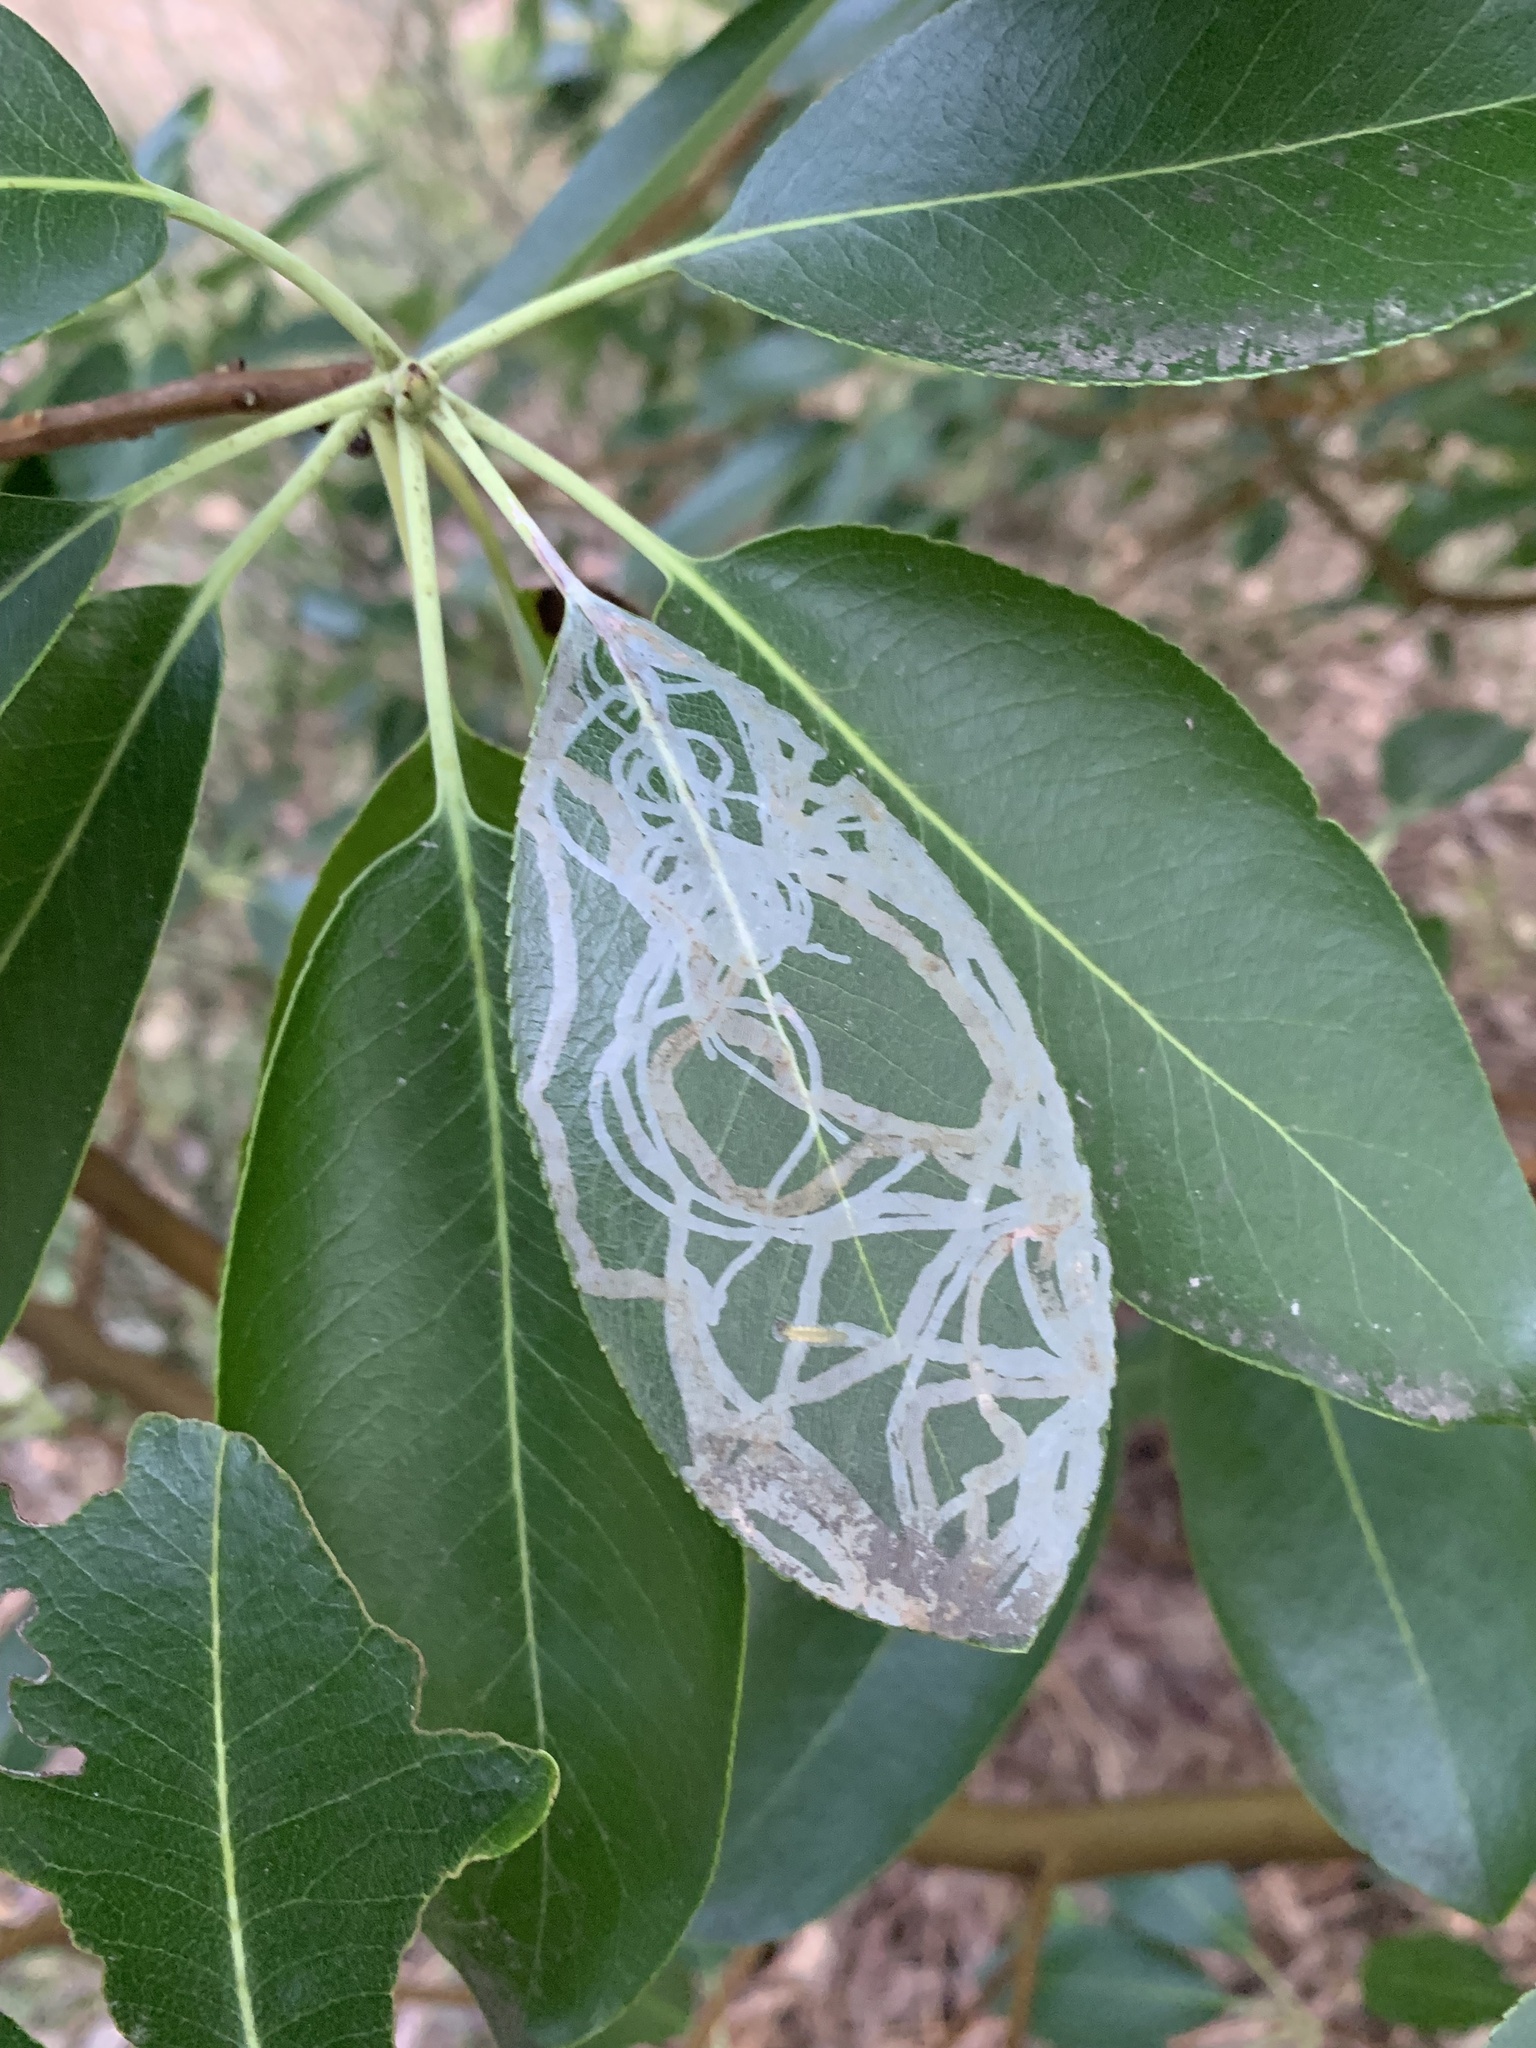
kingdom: Animalia
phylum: Arthropoda
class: Insecta
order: Lepidoptera
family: Gracillariidae
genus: Marmara
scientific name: Marmara arbutiella
